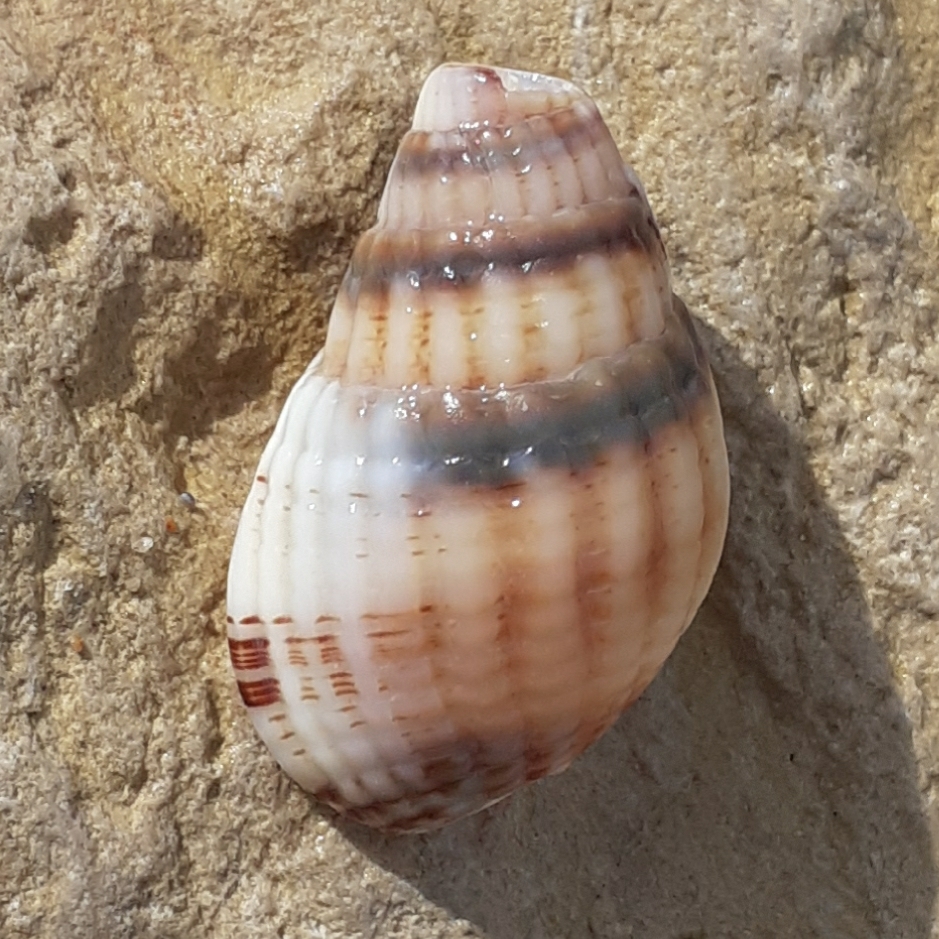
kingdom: Animalia
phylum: Mollusca
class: Gastropoda
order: Neogastropoda
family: Nassariidae
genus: Tritia
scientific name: Tritia reticulata
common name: Netted dog whelk
